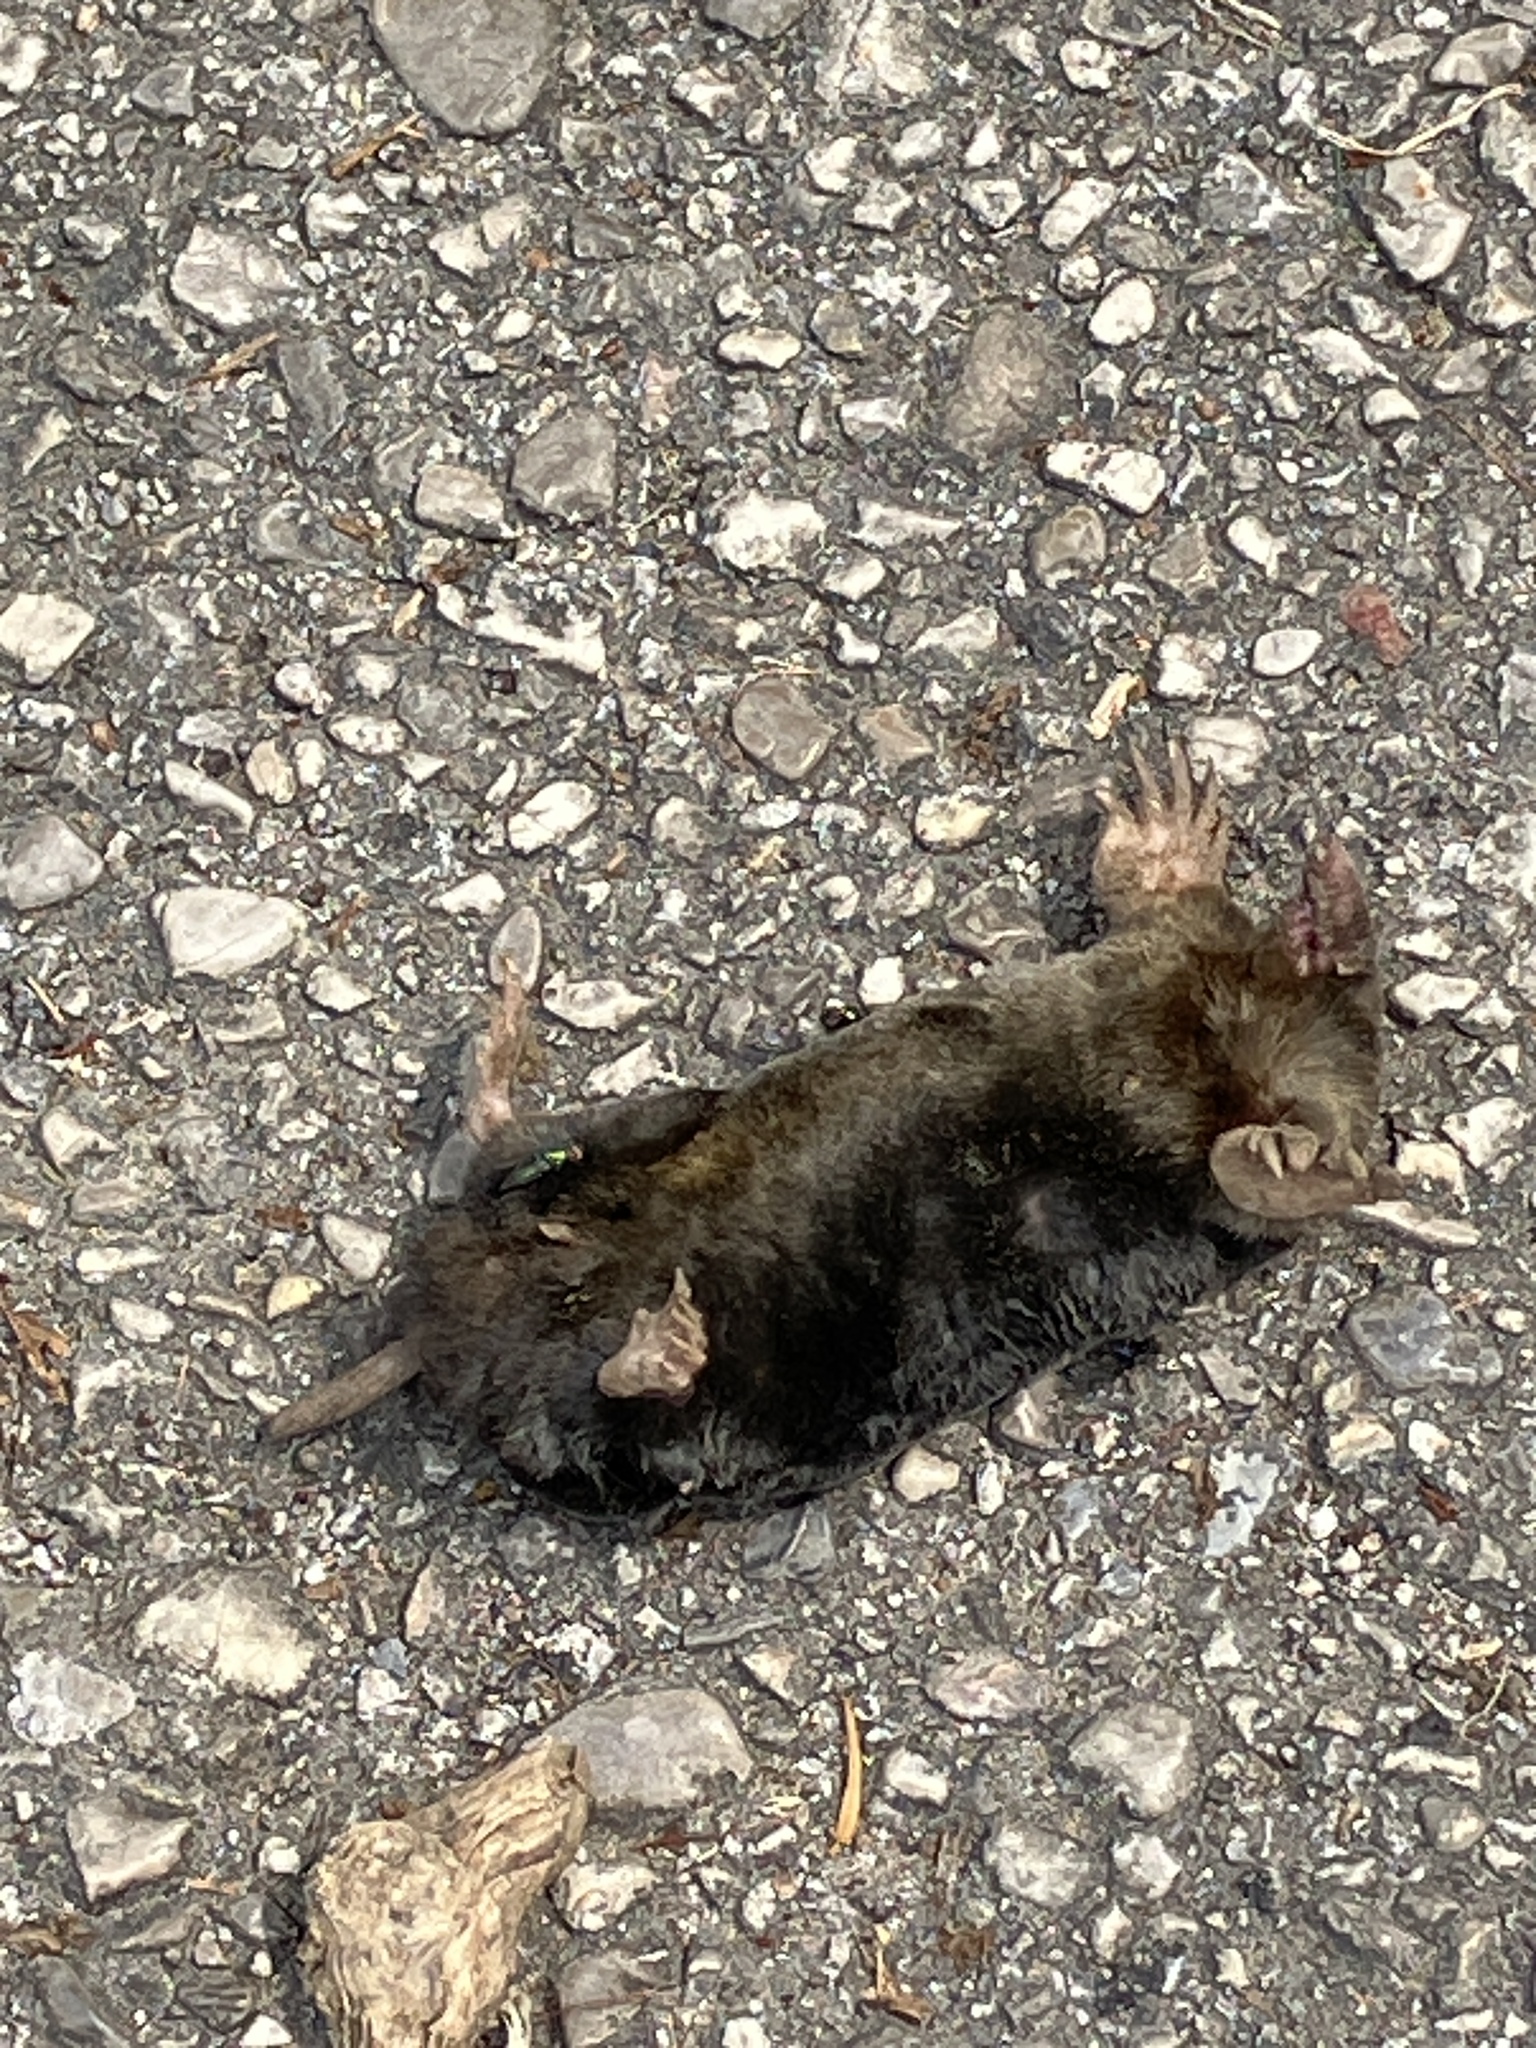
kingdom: Animalia
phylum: Chordata
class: Mammalia
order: Soricomorpha
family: Talpidae
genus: Talpa
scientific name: Talpa europaea
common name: European mole
